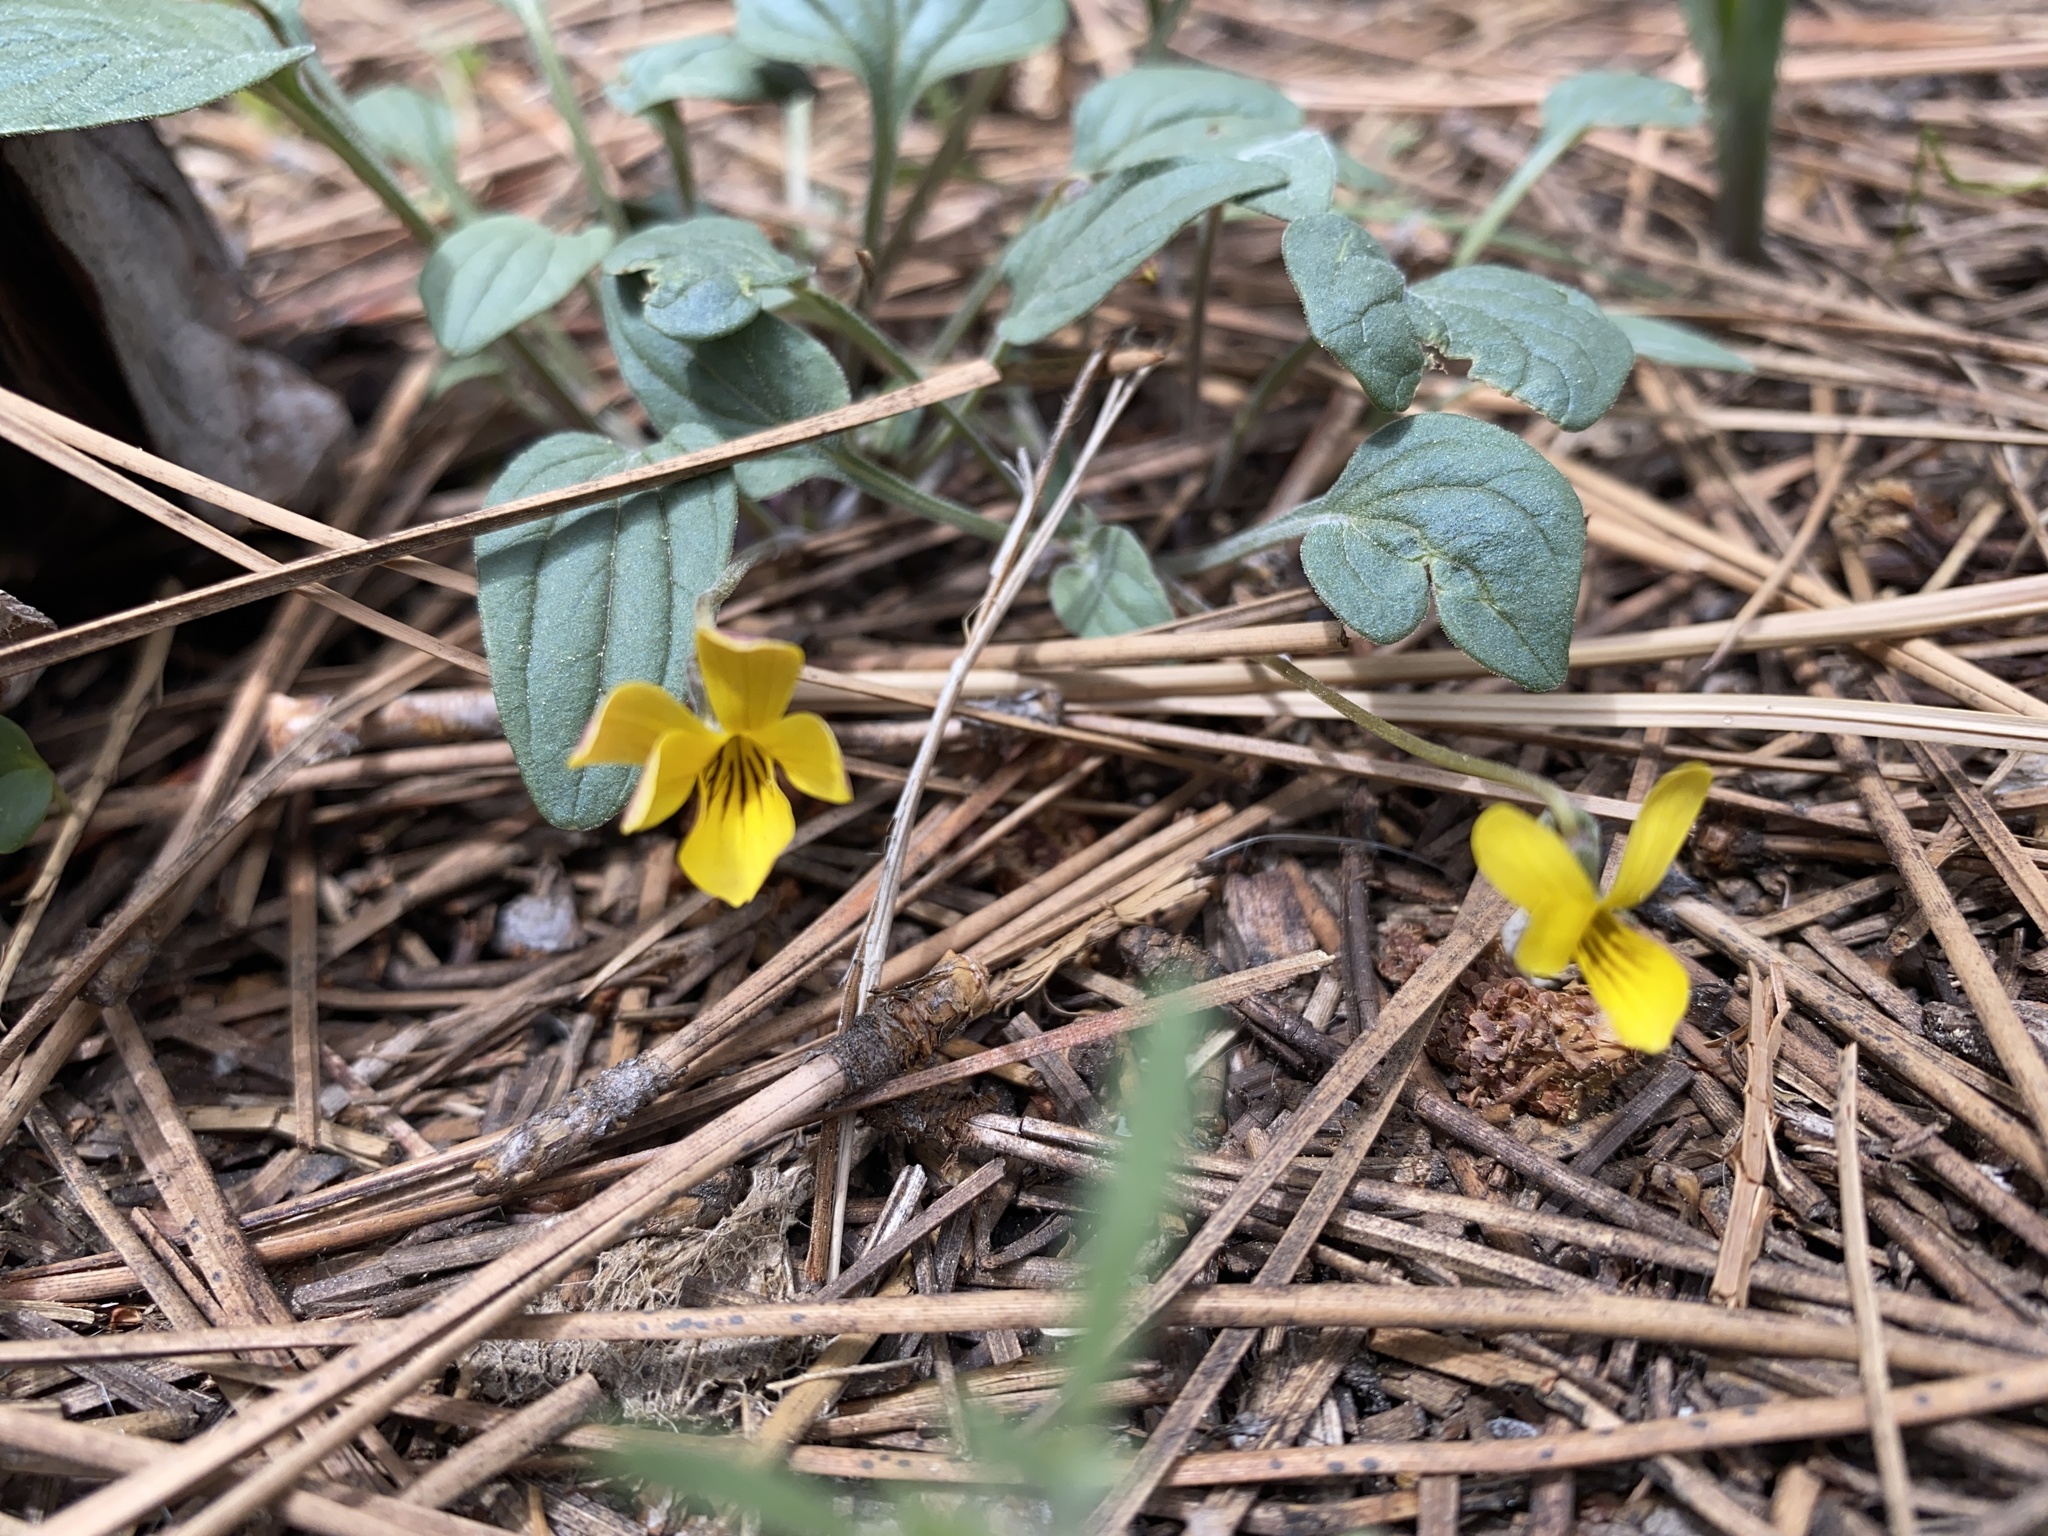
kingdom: Plantae
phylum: Tracheophyta
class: Magnoliopsida
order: Malpighiales
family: Violaceae
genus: Viola
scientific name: Viola purpurea
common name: Pine violet
